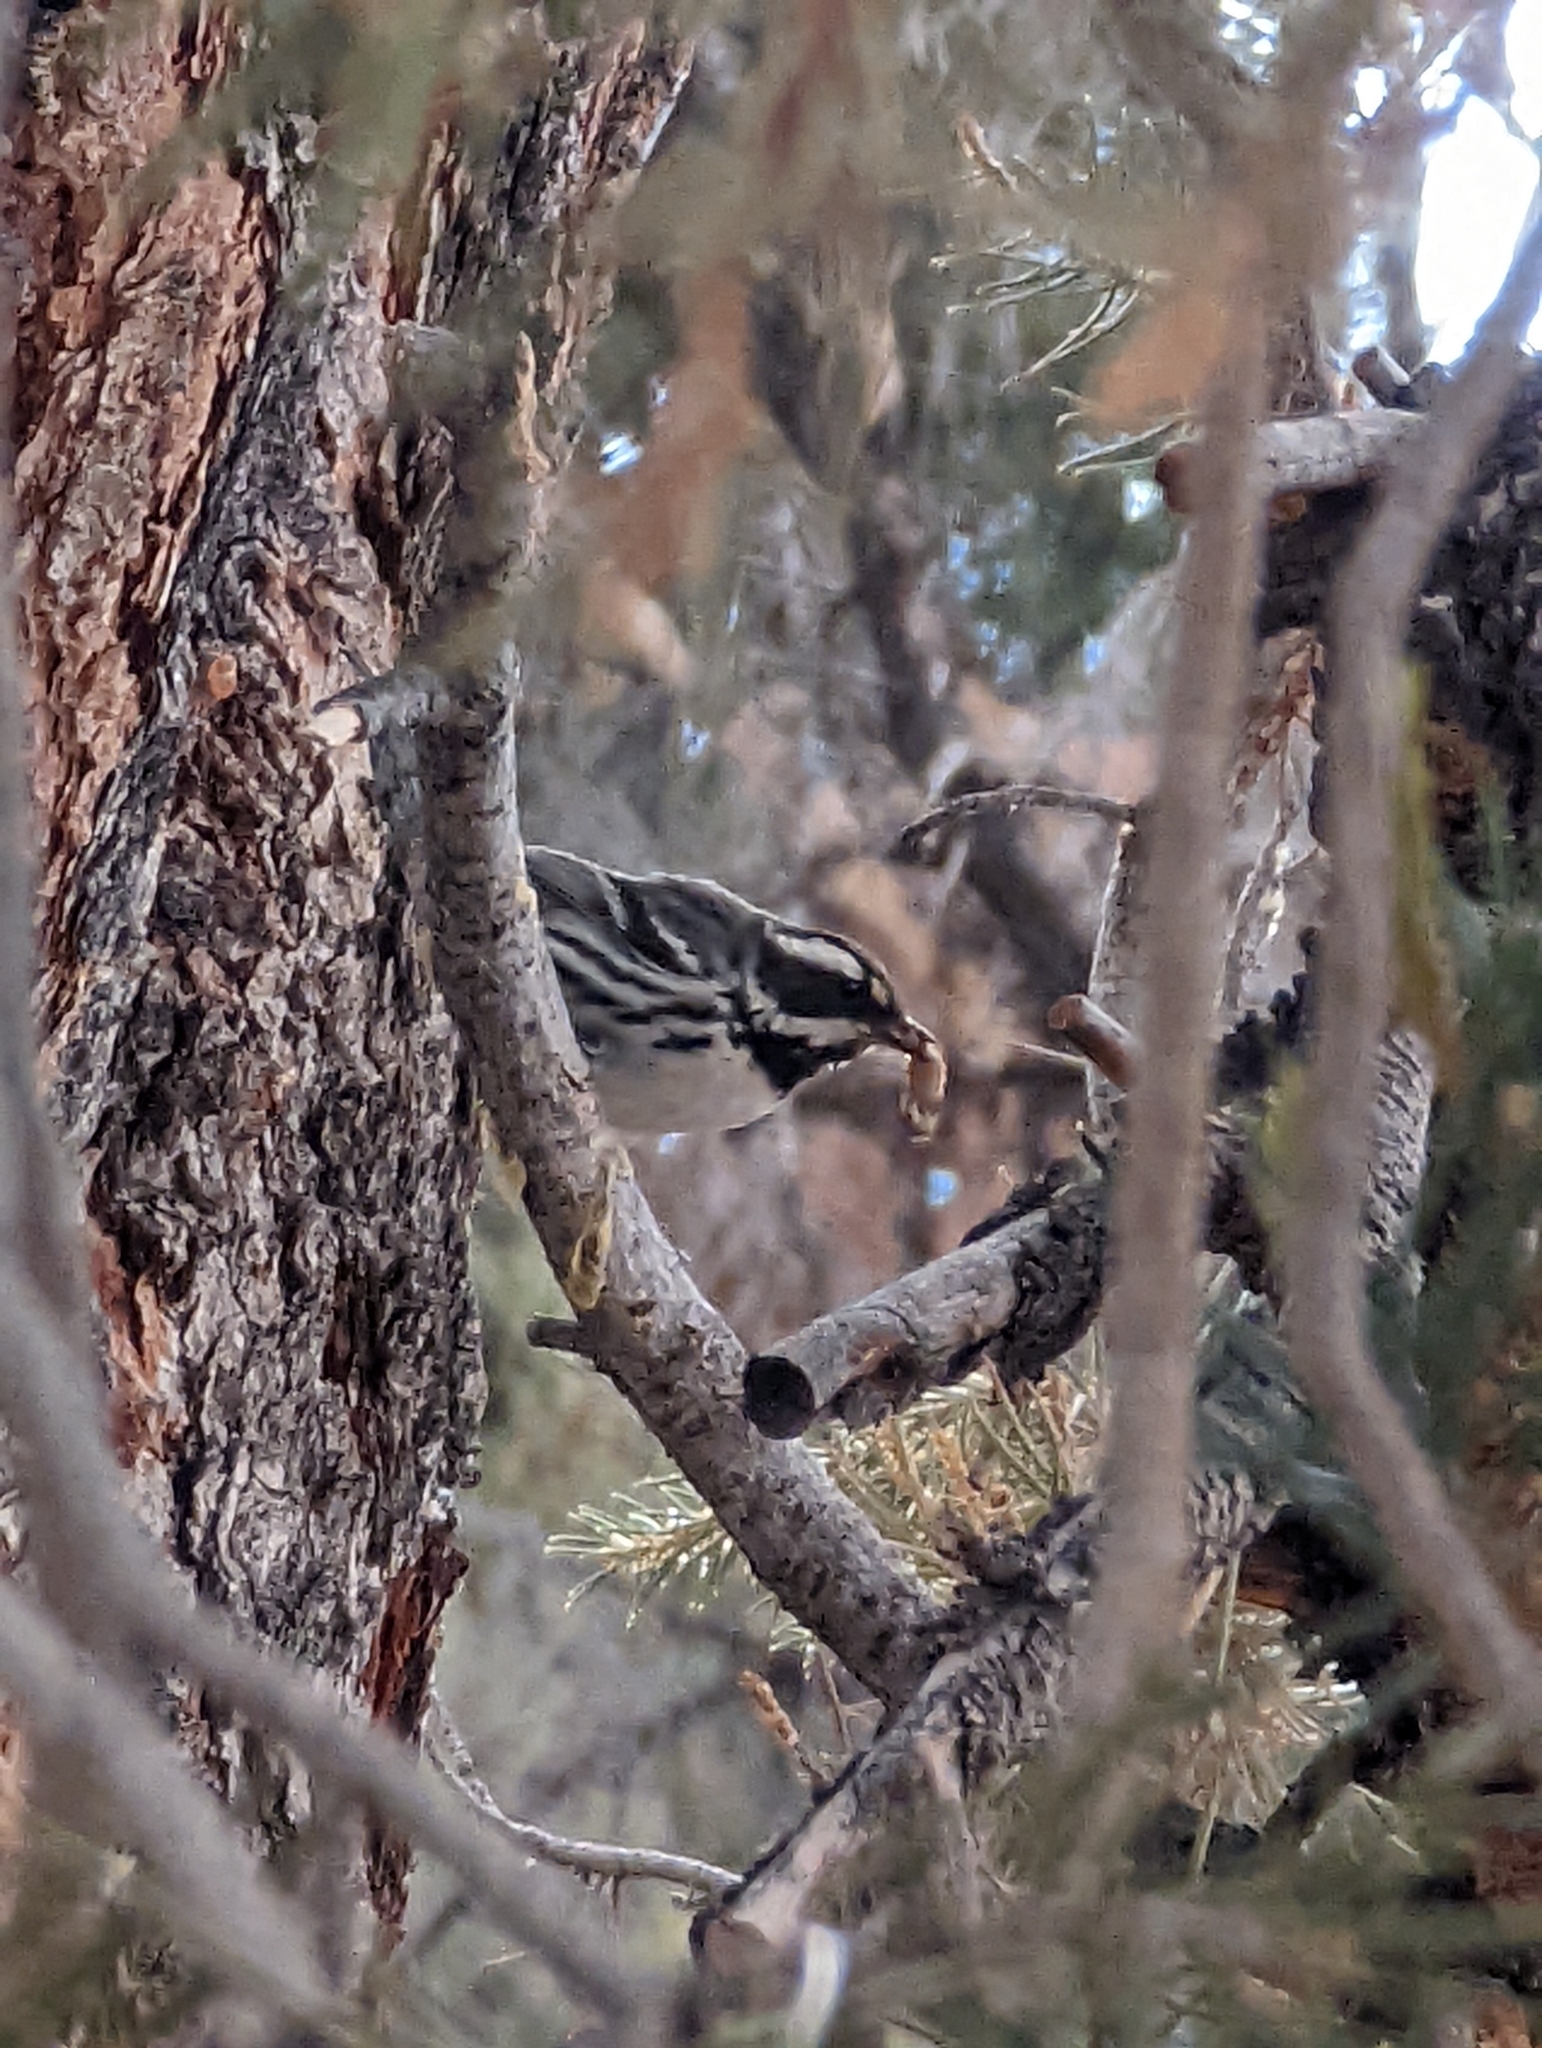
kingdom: Animalia
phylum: Chordata
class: Aves
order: Passeriformes
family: Parulidae
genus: Setophaga
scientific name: Setophaga nigrescens
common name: Black-throated gray warbler
